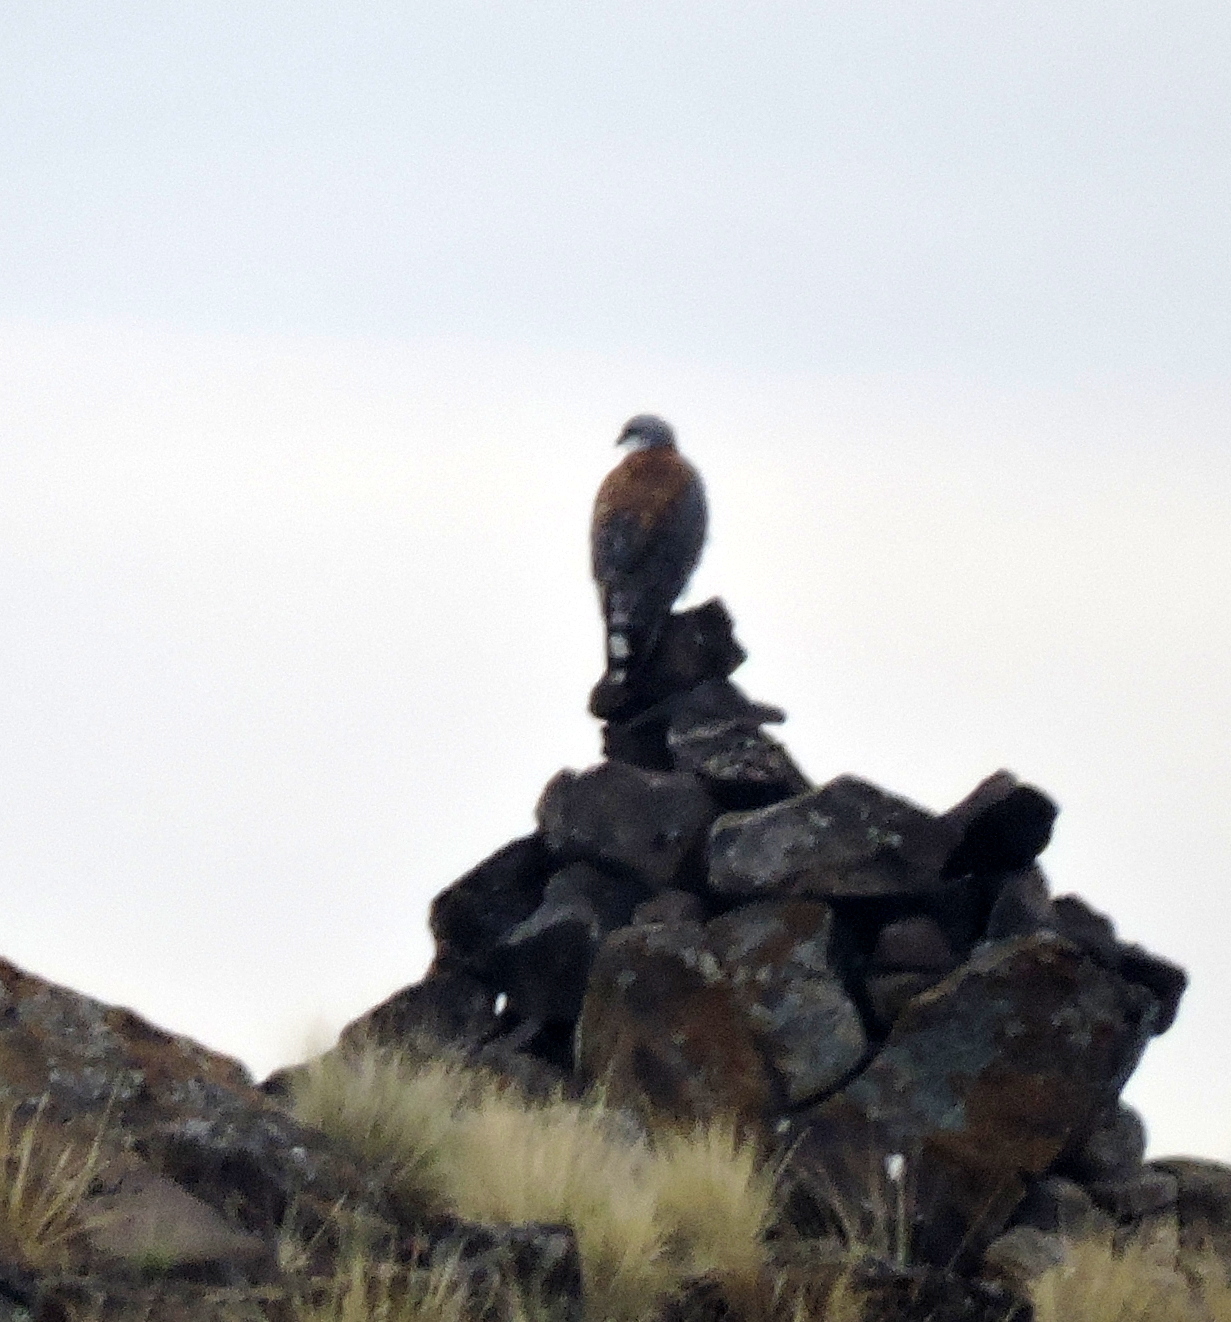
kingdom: Animalia
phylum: Chordata
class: Aves
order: Accipitriformes
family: Accipitridae
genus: Buteo
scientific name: Buteo polyosoma
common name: Variable hawk
